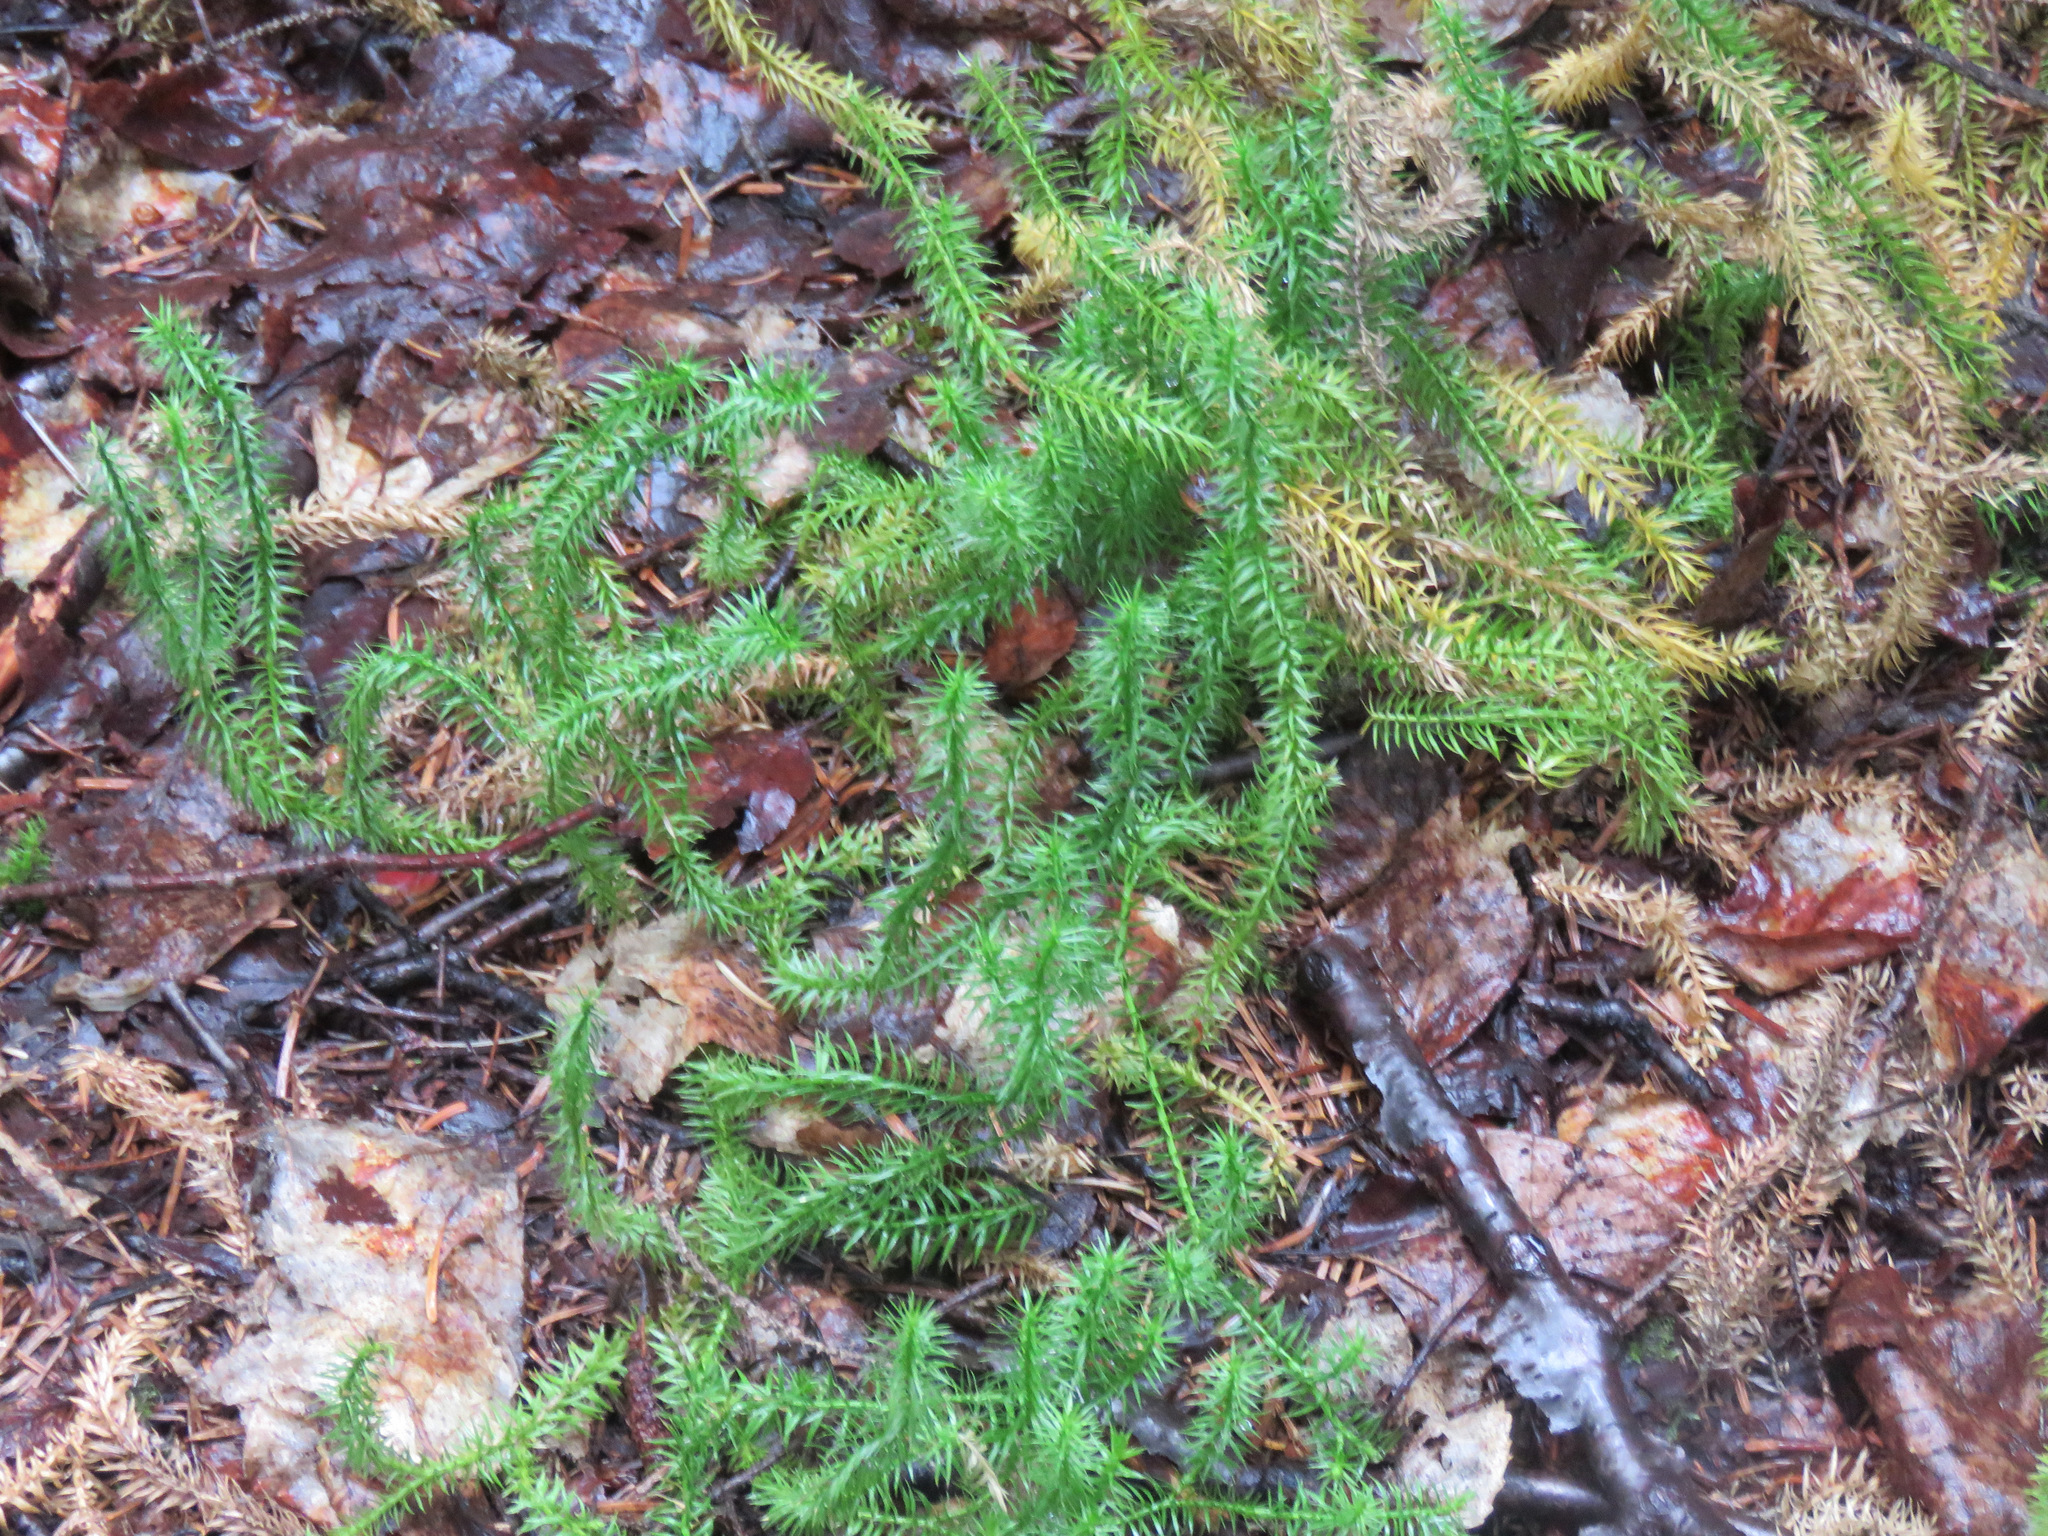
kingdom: Plantae
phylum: Tracheophyta
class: Lycopodiopsida
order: Lycopodiales
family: Lycopodiaceae
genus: Spinulum
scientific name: Spinulum annotinum
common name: Interrupted club-moss
